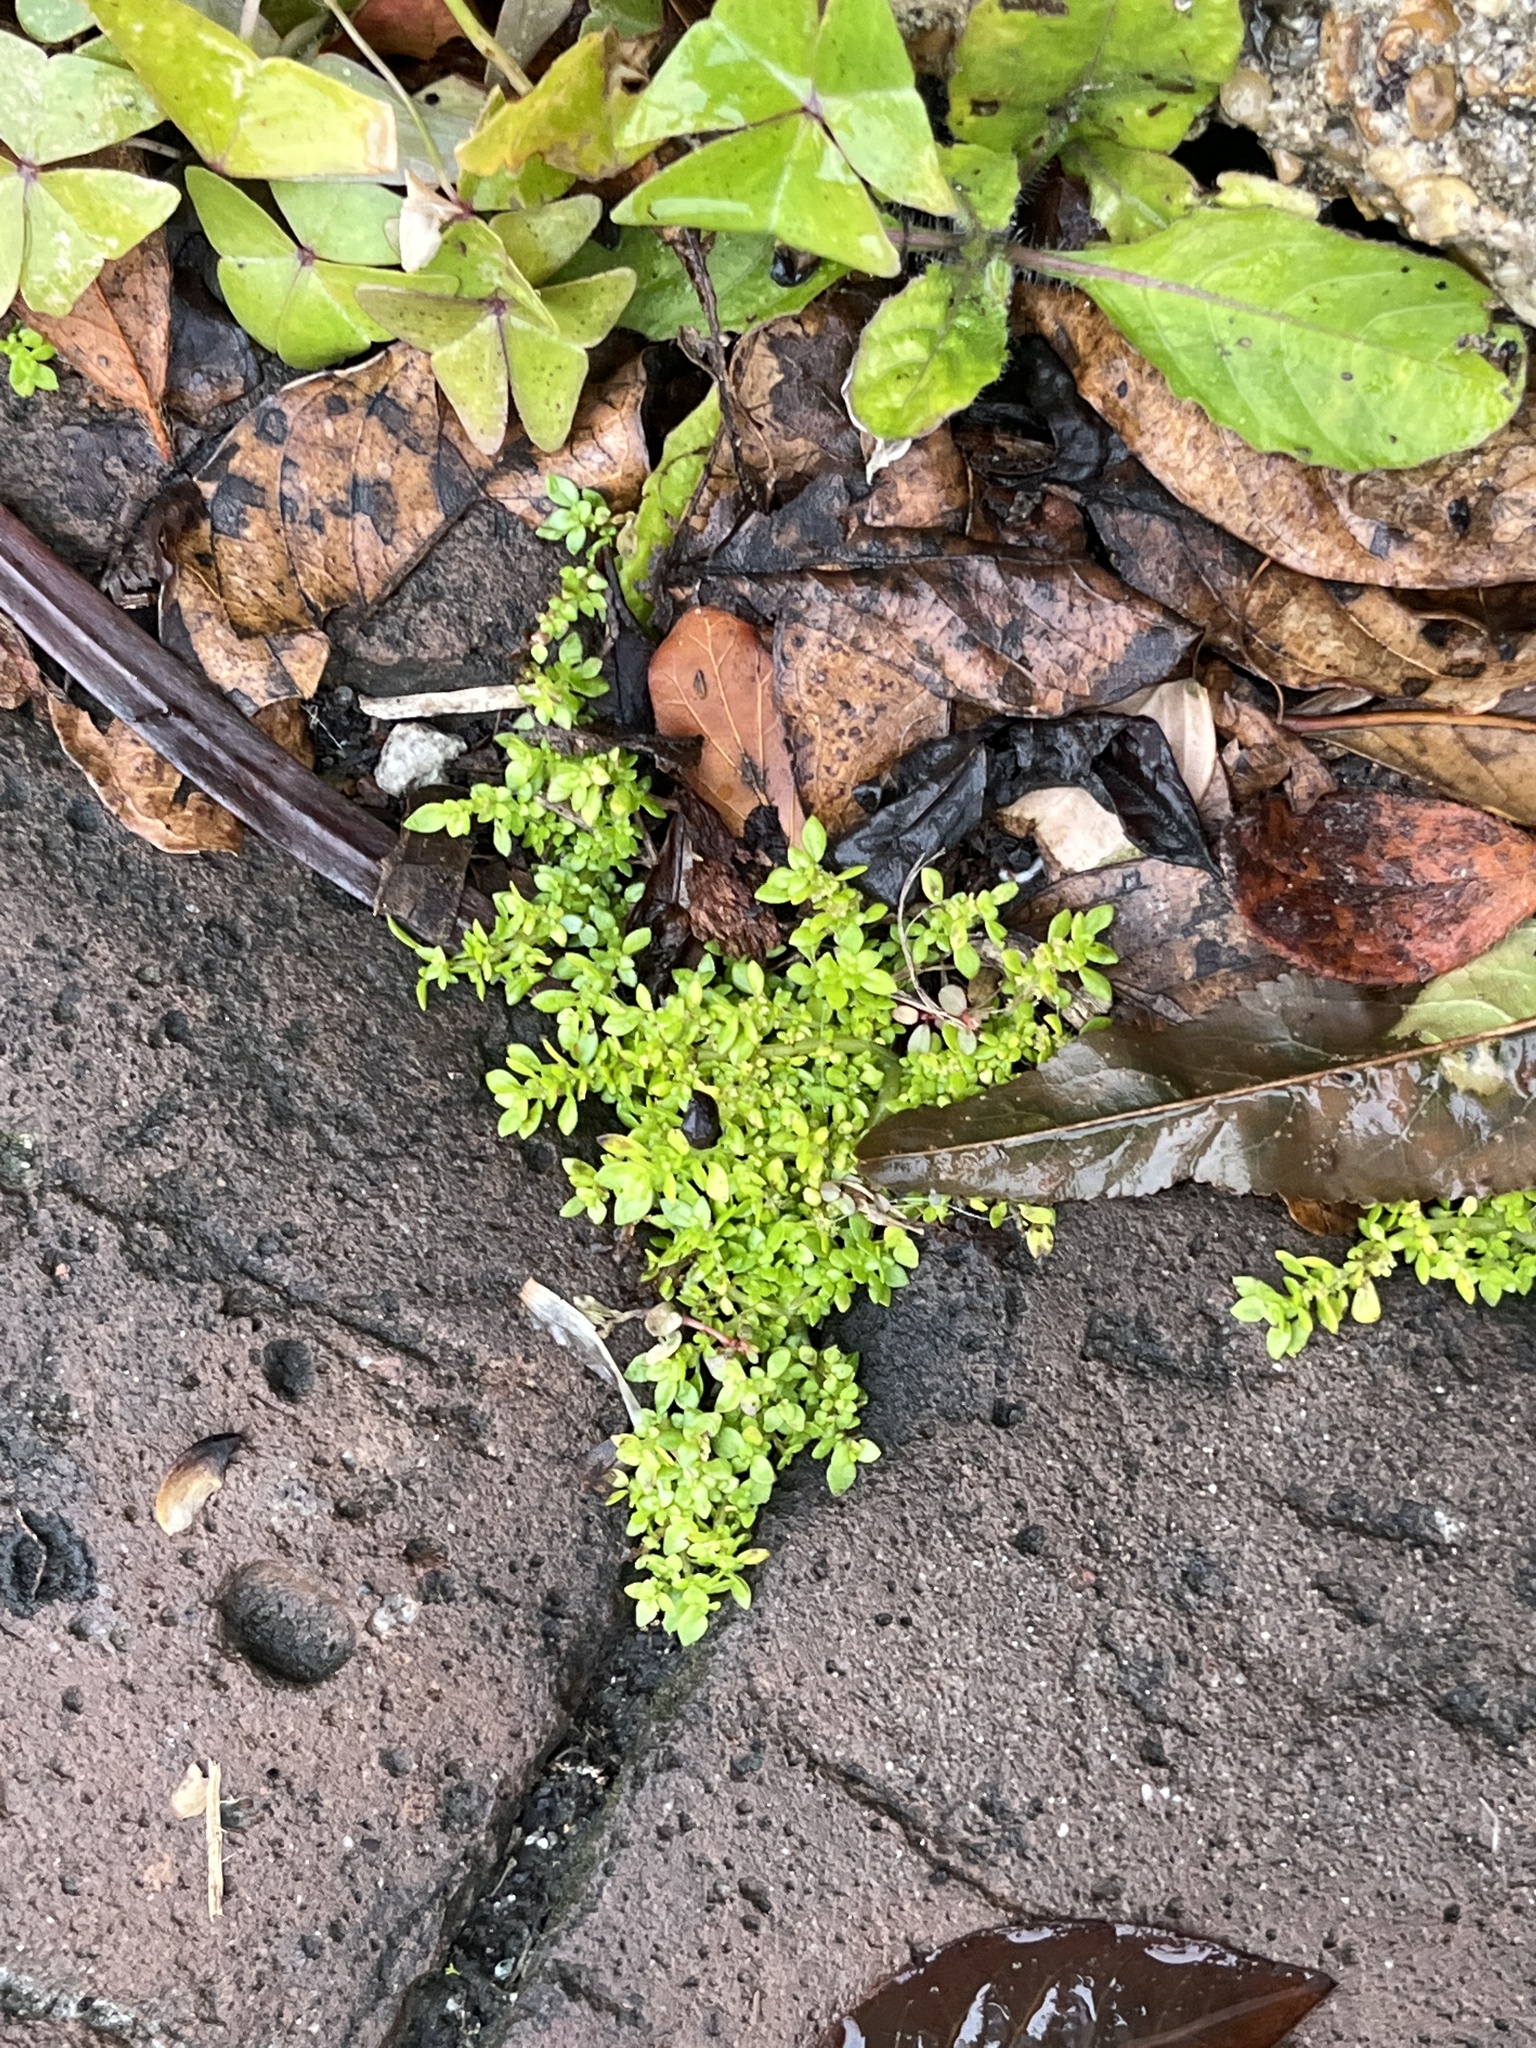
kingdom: Plantae
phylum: Tracheophyta
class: Magnoliopsida
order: Rosales
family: Urticaceae
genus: Pilea
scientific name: Pilea microphylla
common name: Artillery-plant
